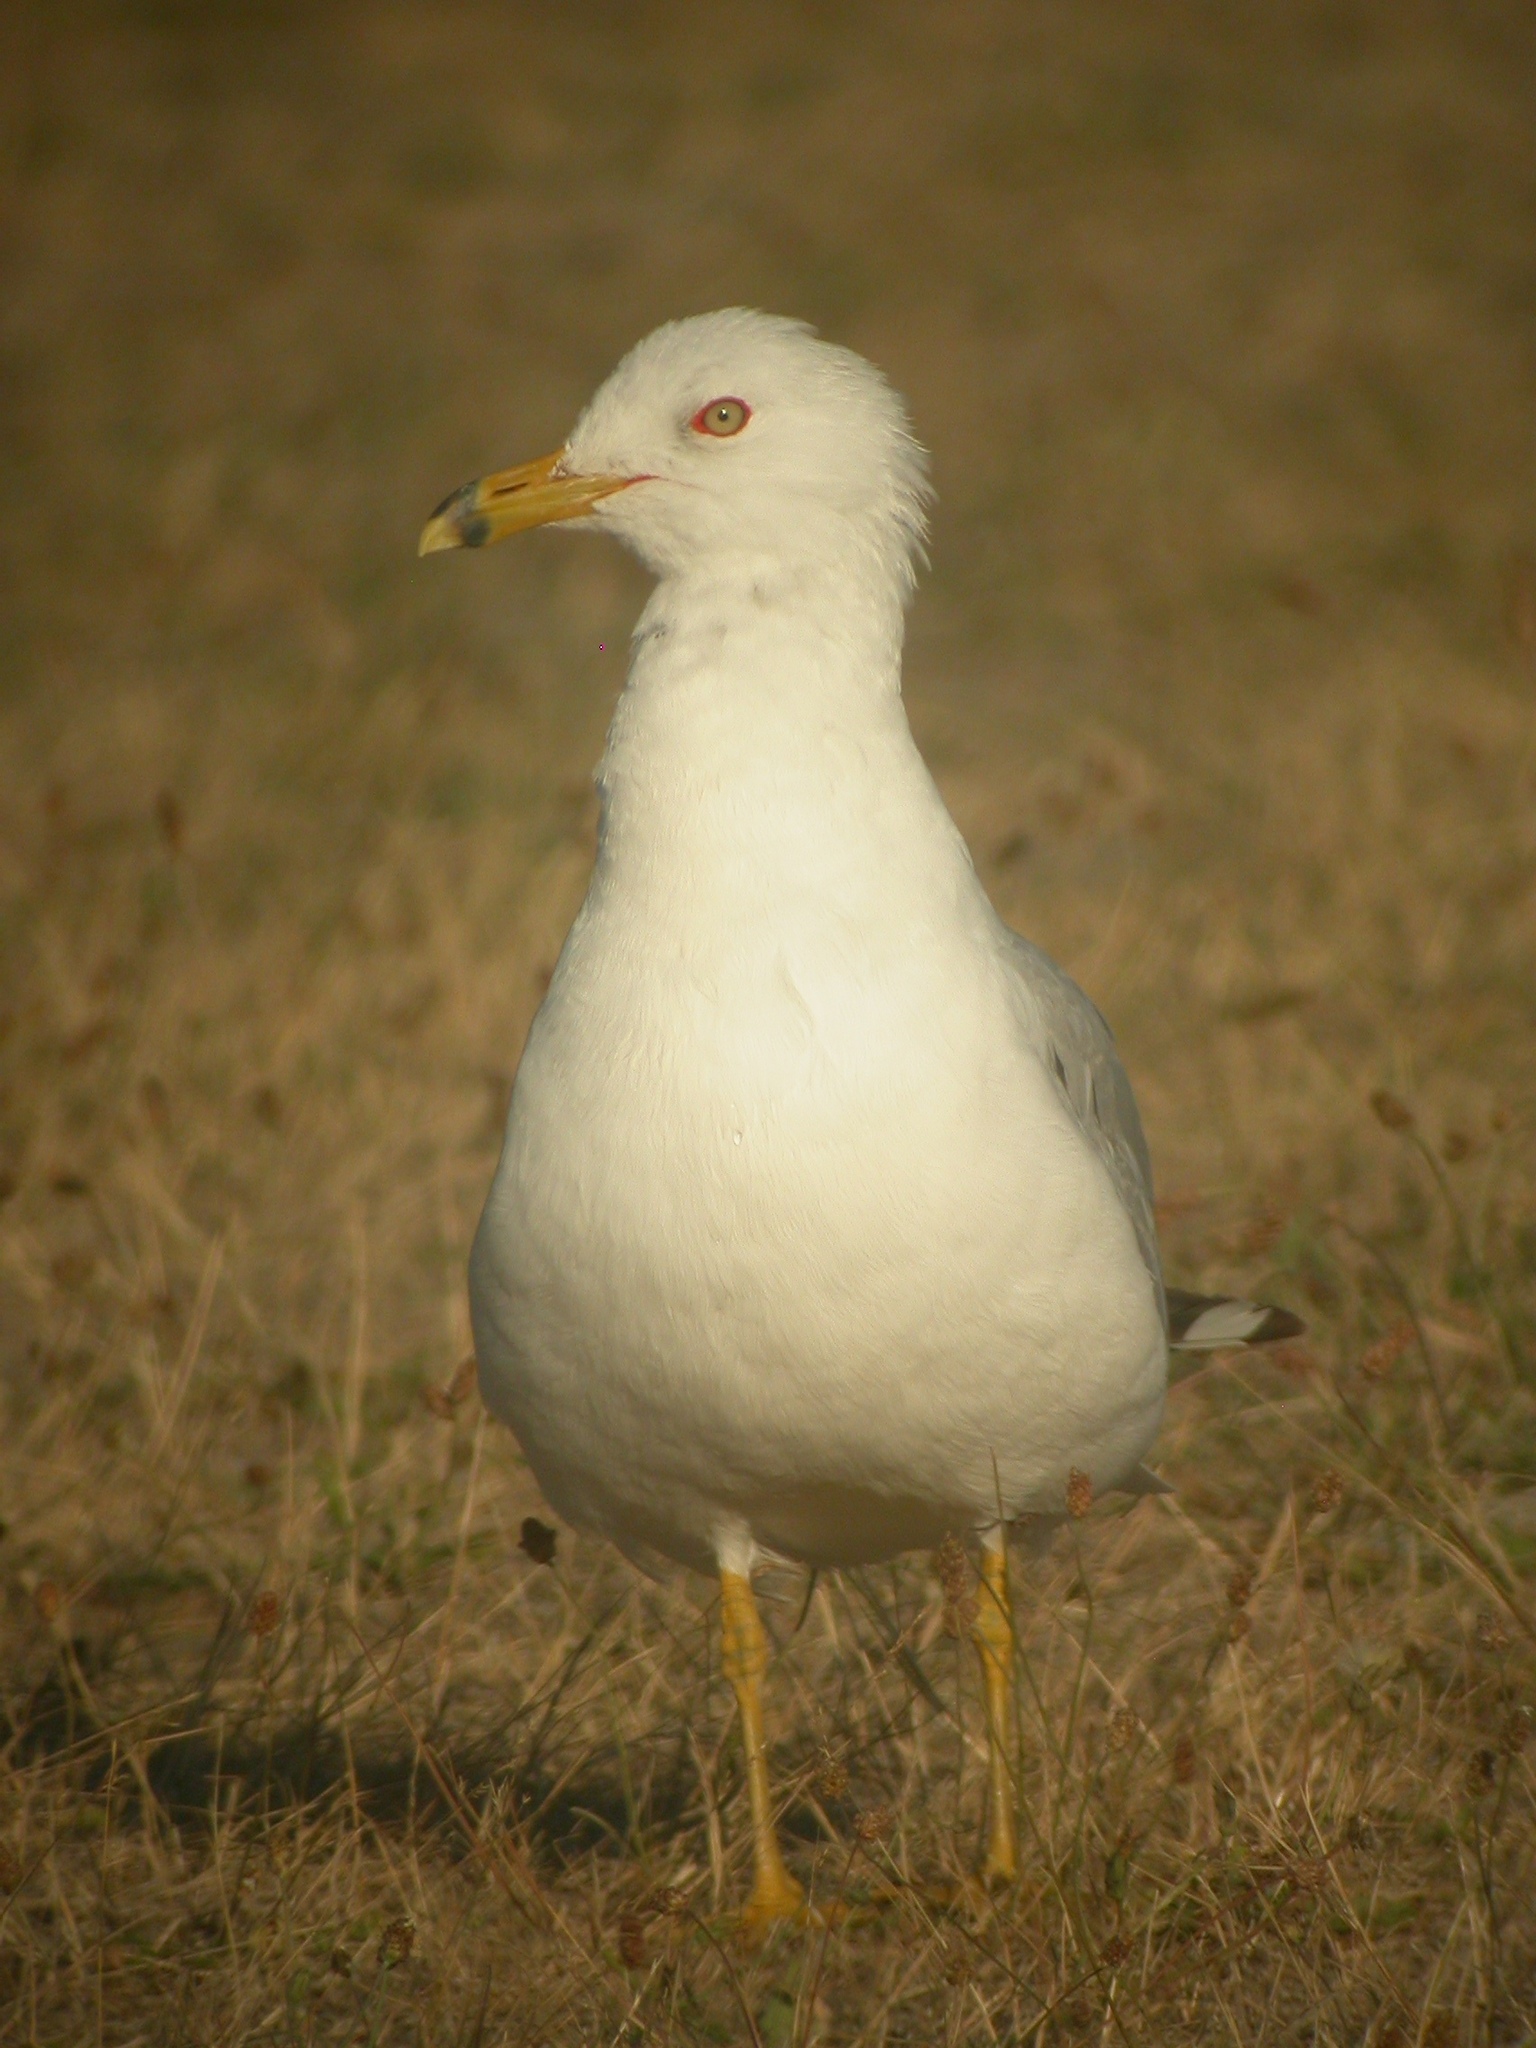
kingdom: Animalia
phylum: Chordata
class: Aves
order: Charadriiformes
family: Laridae
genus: Larus
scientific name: Larus delawarensis
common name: Ring-billed gull
